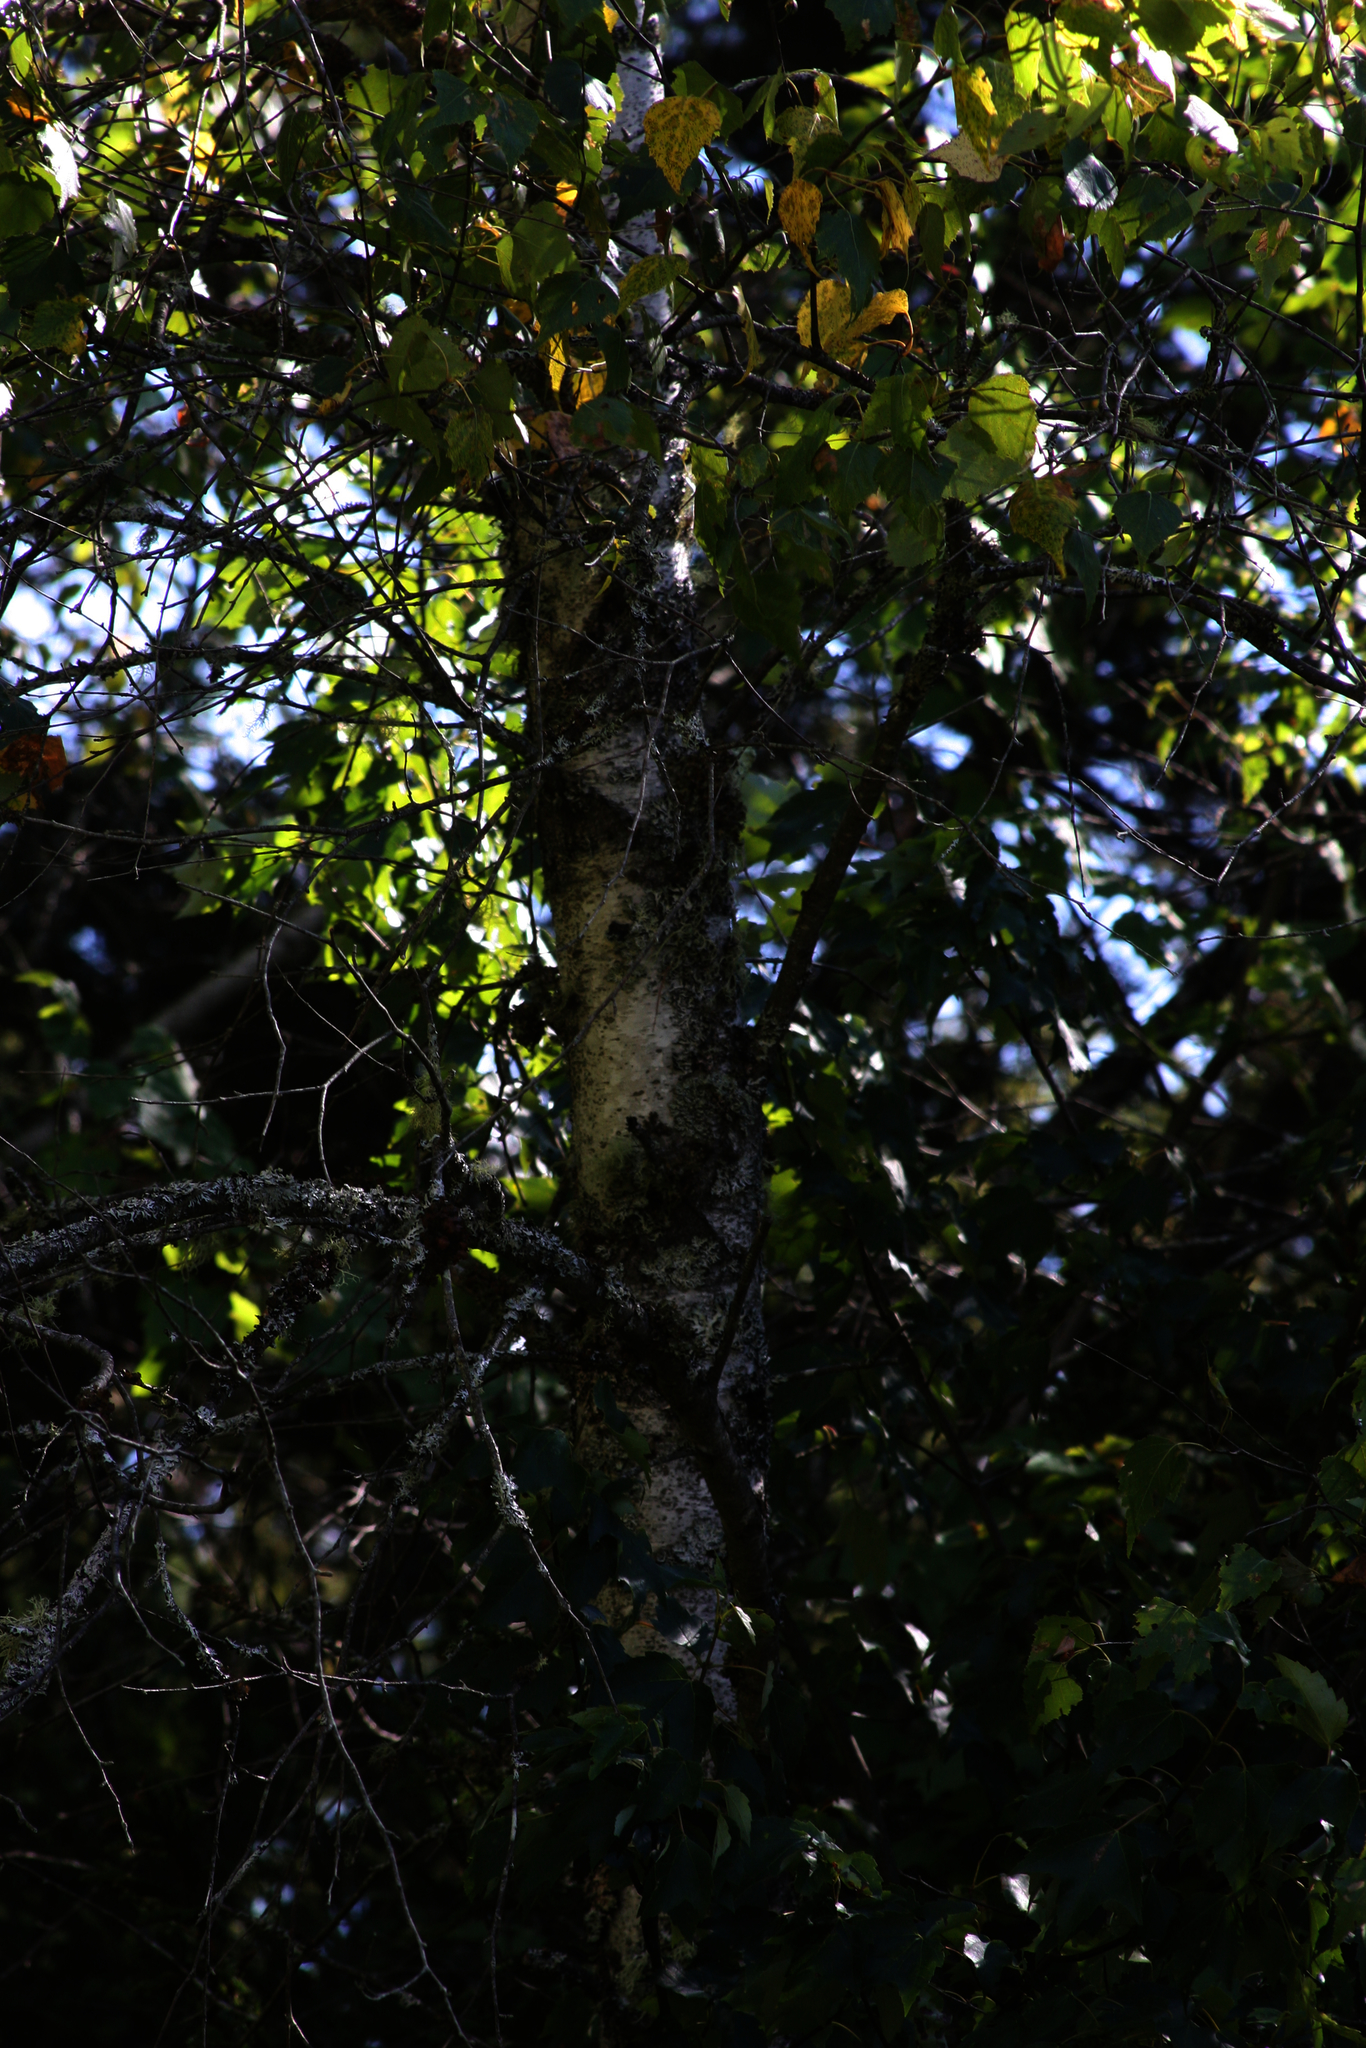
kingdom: Plantae
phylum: Tracheophyta
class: Magnoliopsida
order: Fagales
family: Betulaceae
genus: Betula
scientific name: Betula populifolia
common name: Fire birch
